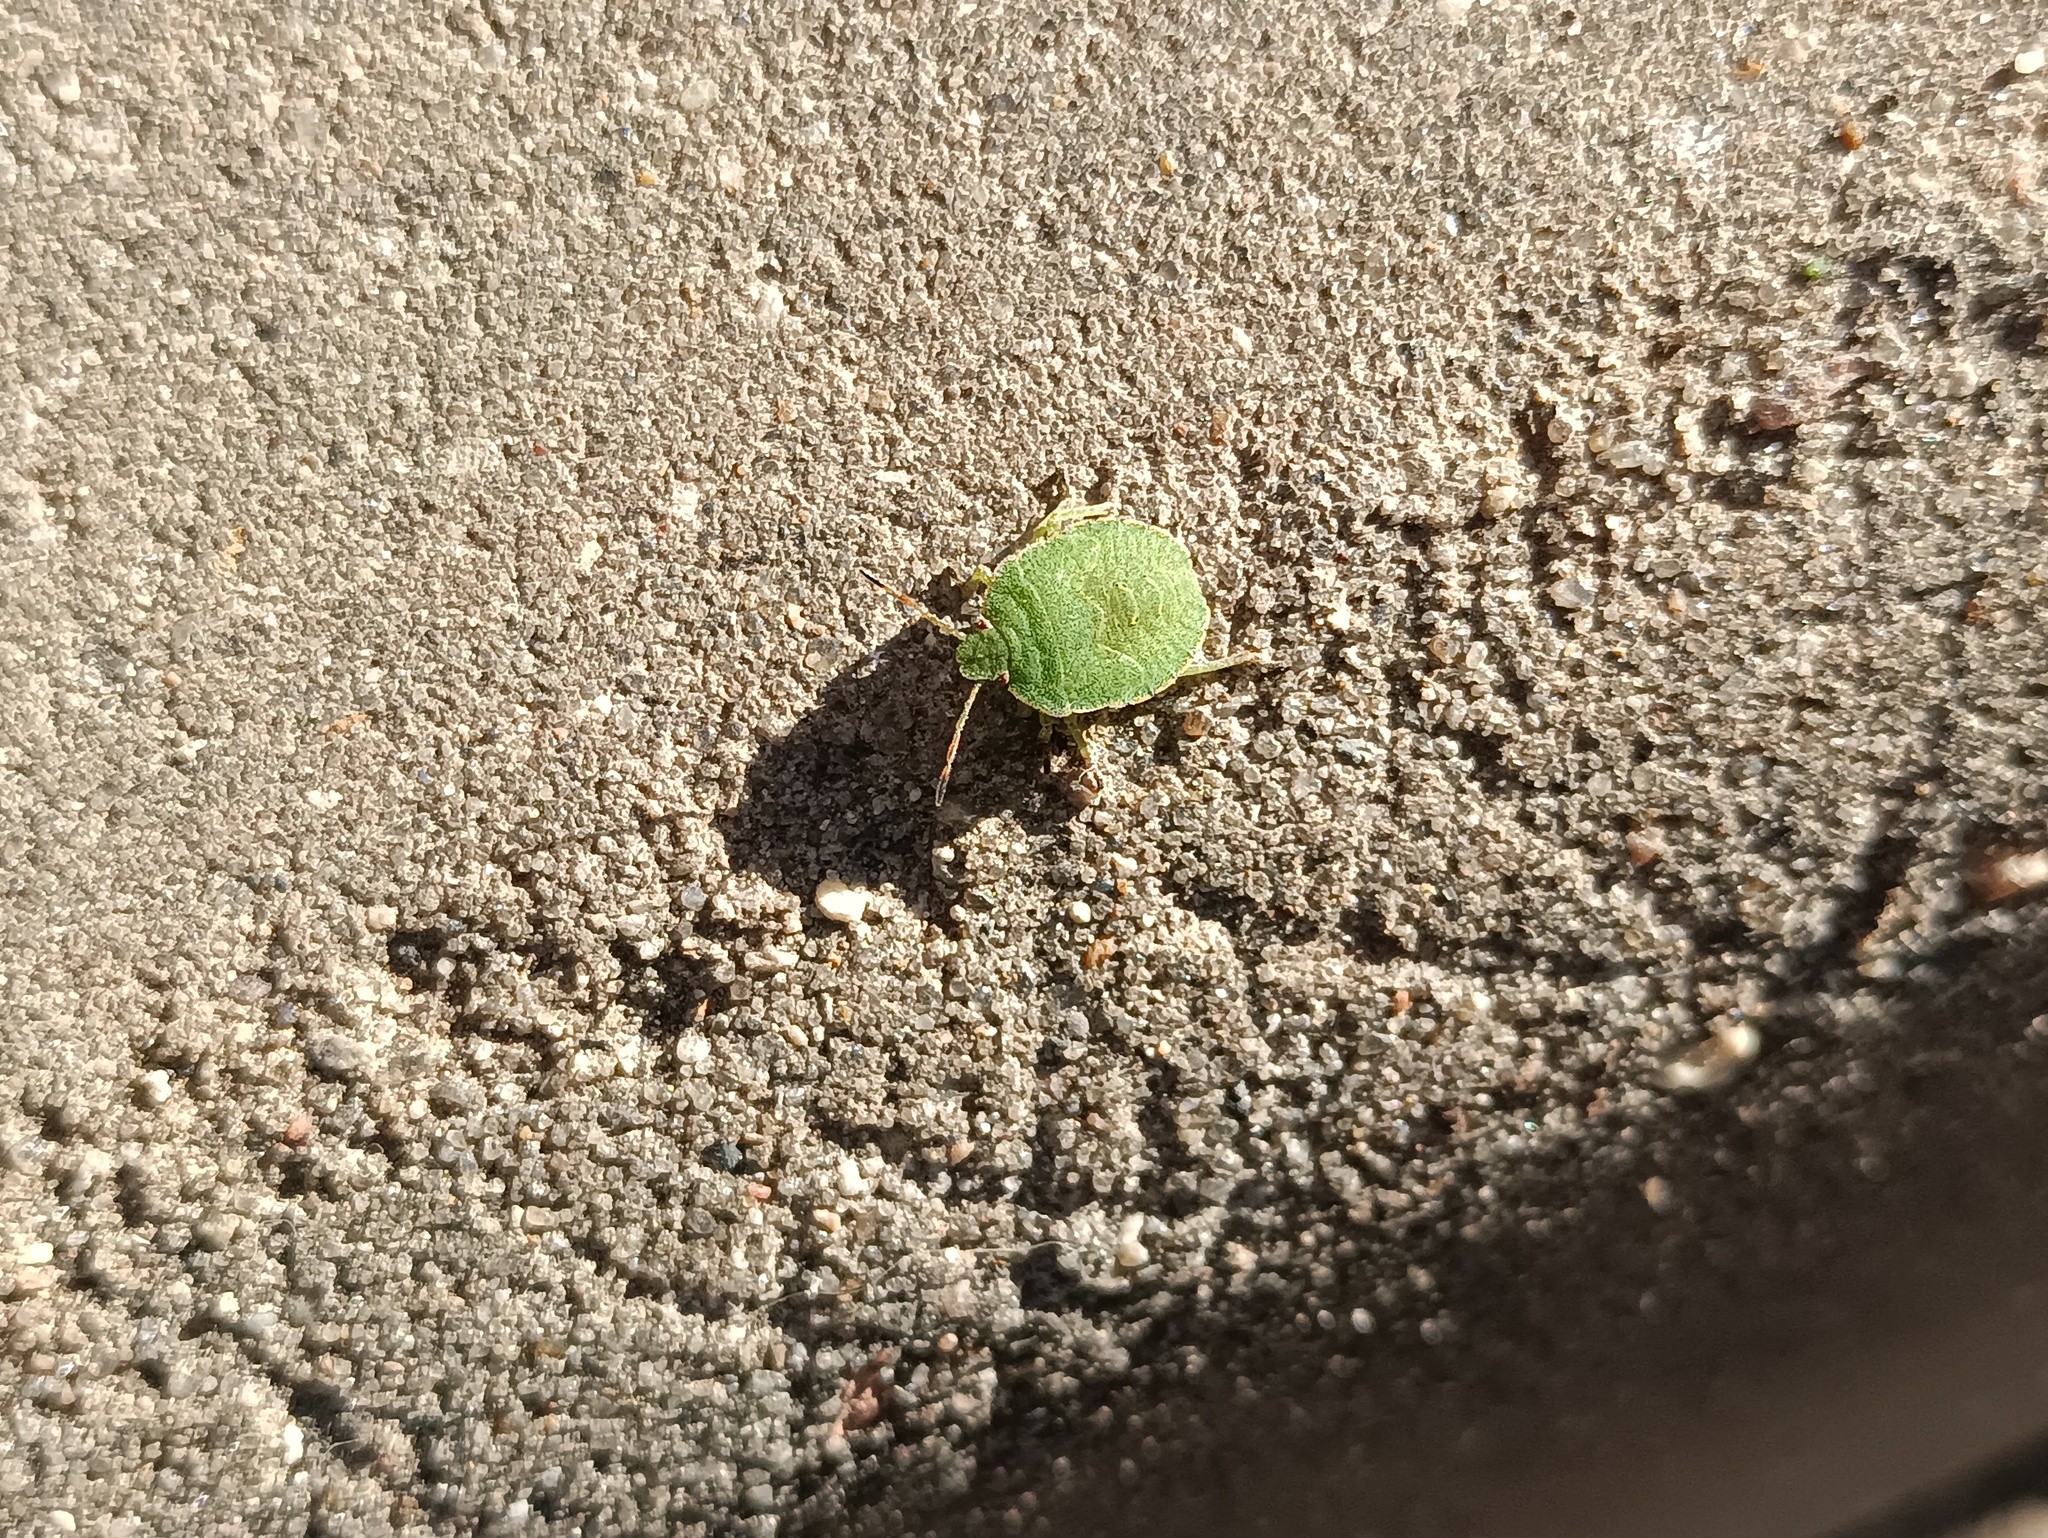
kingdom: Animalia
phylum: Arthropoda
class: Insecta
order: Hemiptera
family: Pentatomidae
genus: Palomena
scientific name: Palomena prasina
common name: Green shieldbug
